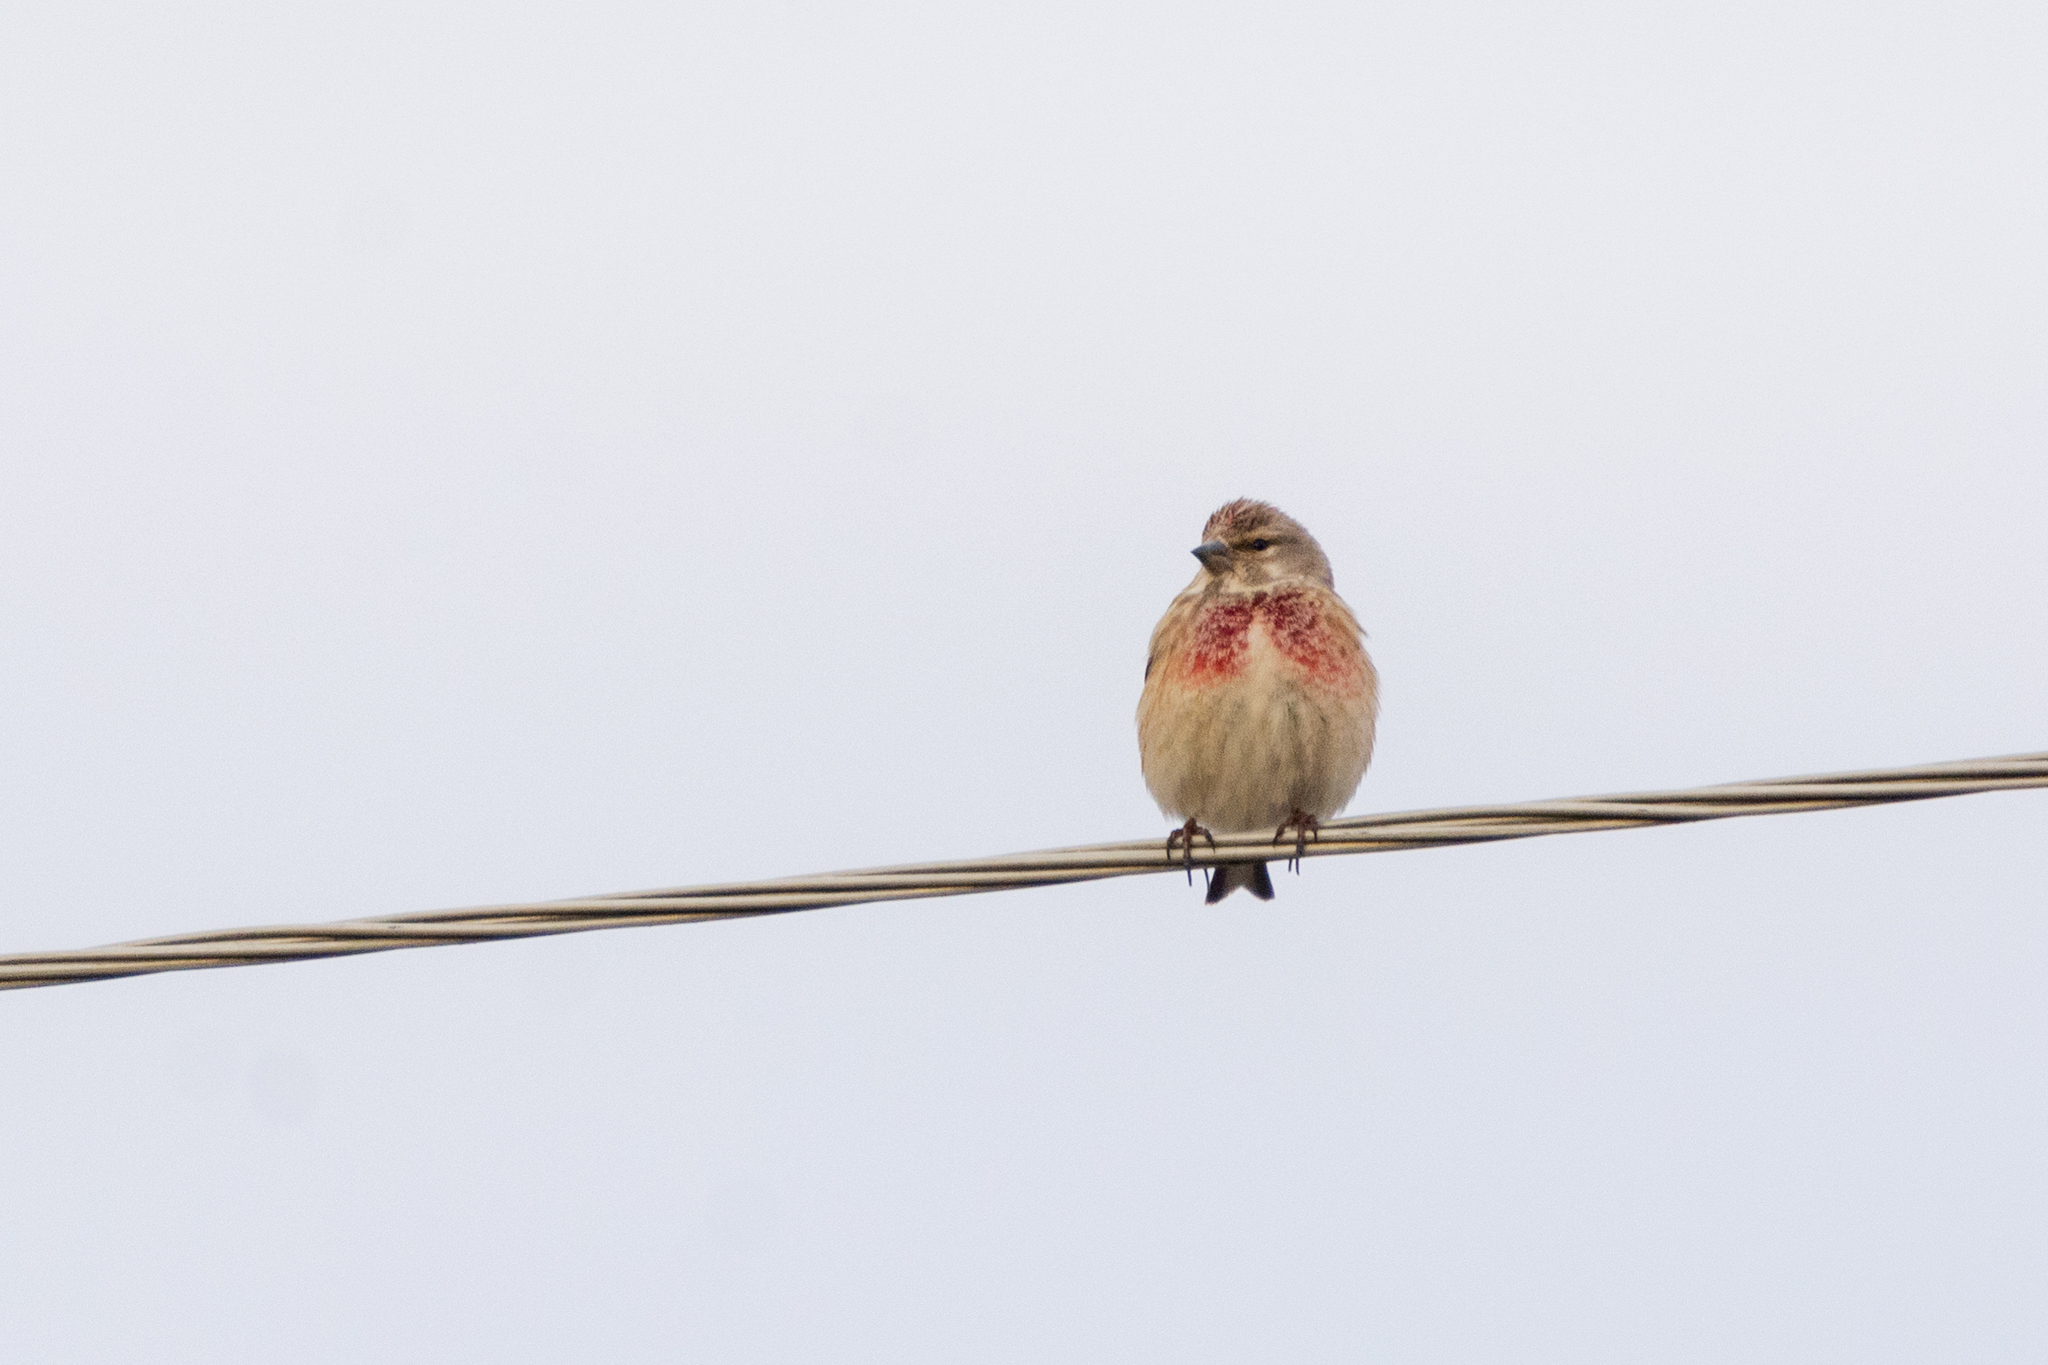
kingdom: Animalia
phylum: Chordata
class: Aves
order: Passeriformes
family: Fringillidae
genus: Linaria
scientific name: Linaria cannabina
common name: Common linnet
